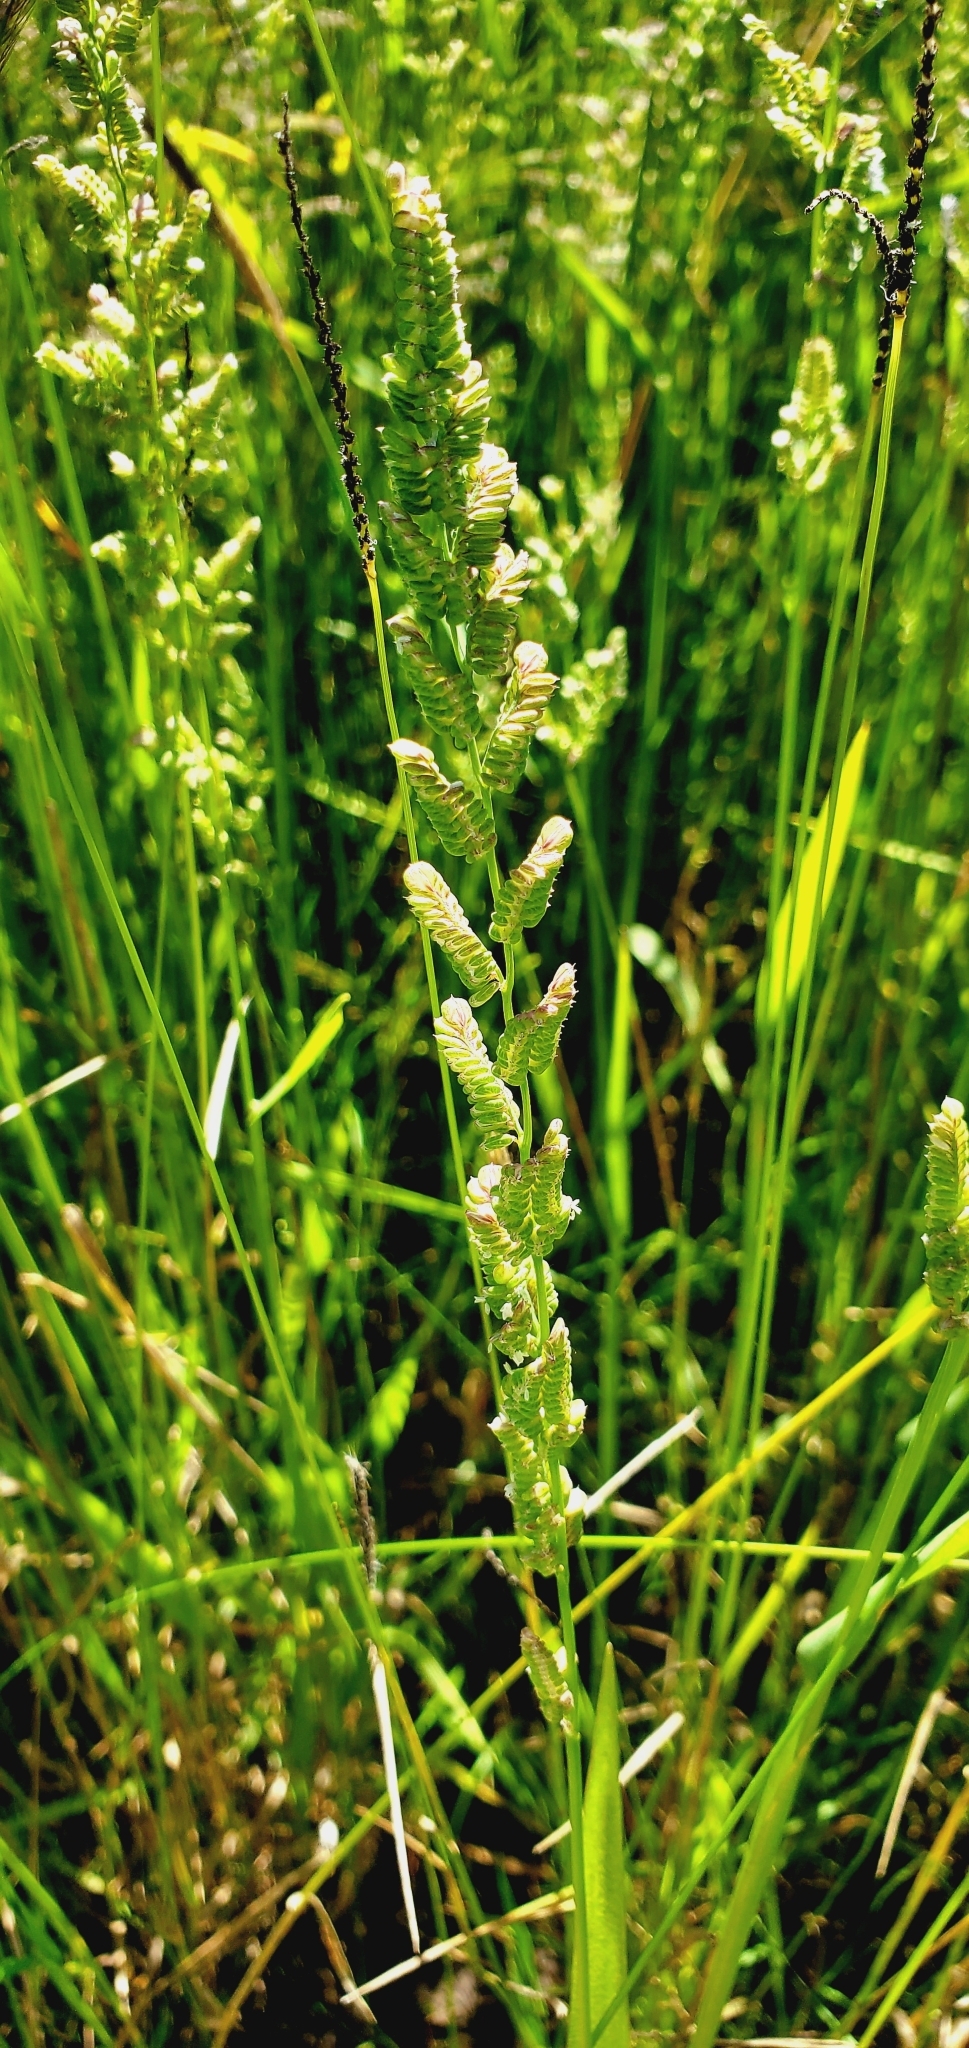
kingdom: Plantae
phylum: Tracheophyta
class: Liliopsida
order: Poales
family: Poaceae
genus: Beckmannia
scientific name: Beckmannia syzigachne
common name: American slough-grass
